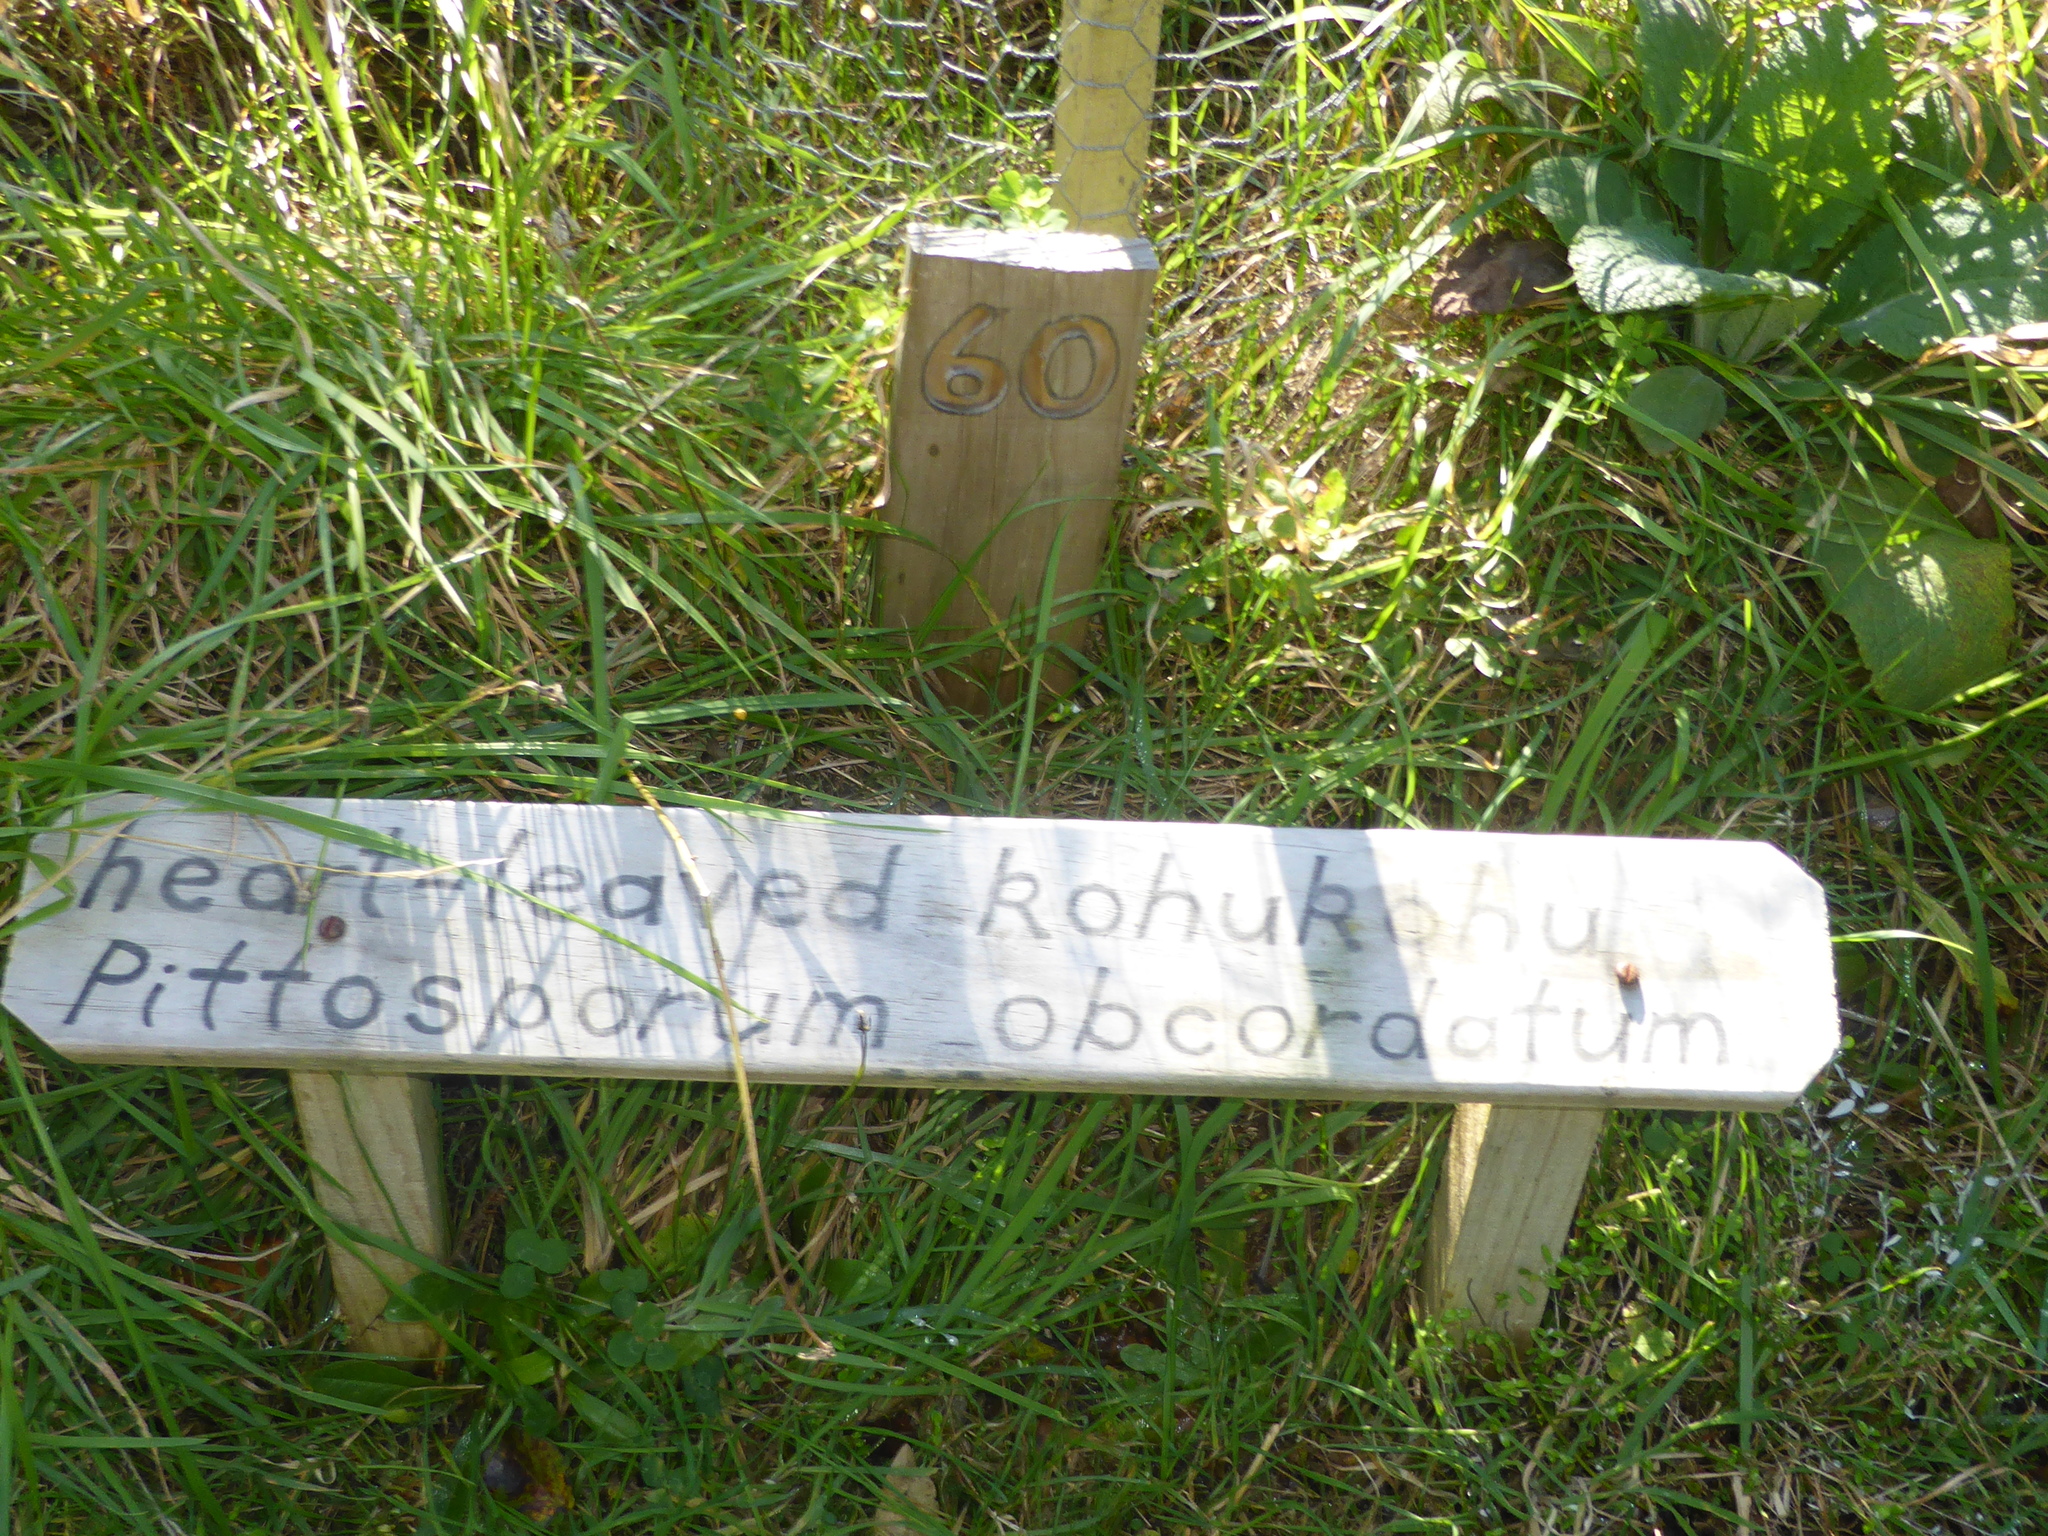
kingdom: Plantae
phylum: Tracheophyta
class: Magnoliopsida
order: Apiales
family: Pittosporaceae
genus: Pittosporum
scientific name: Pittosporum obcordatum
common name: Heart-leaved kohuhu
